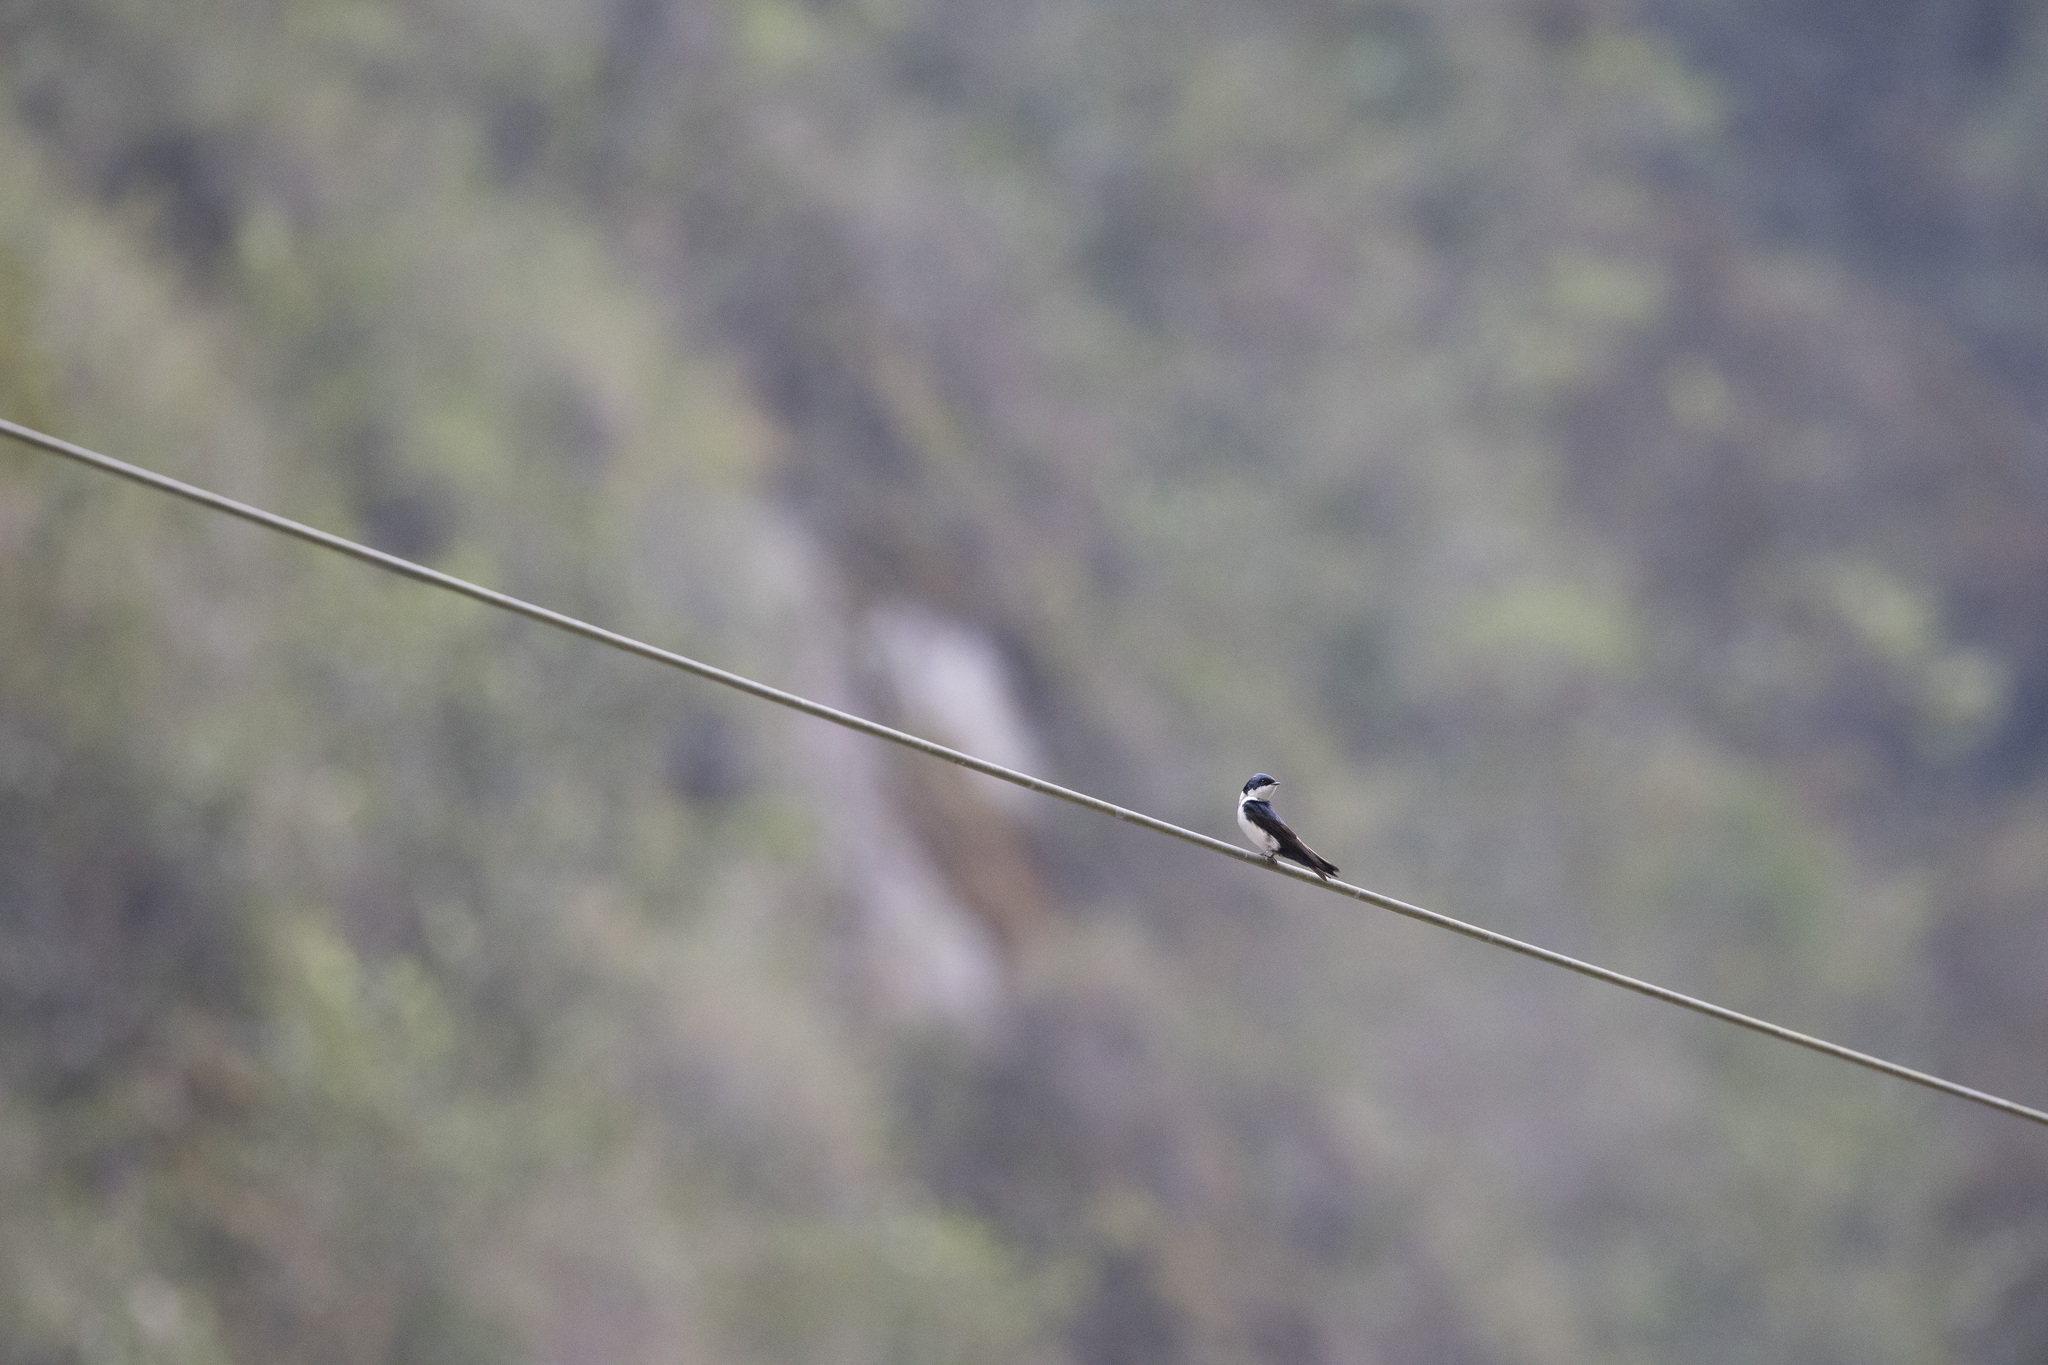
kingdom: Animalia
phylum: Chordata
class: Aves
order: Passeriformes
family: Hirundinidae
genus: Notiochelidon
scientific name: Notiochelidon cyanoleuca
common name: Blue-and-white swallow
